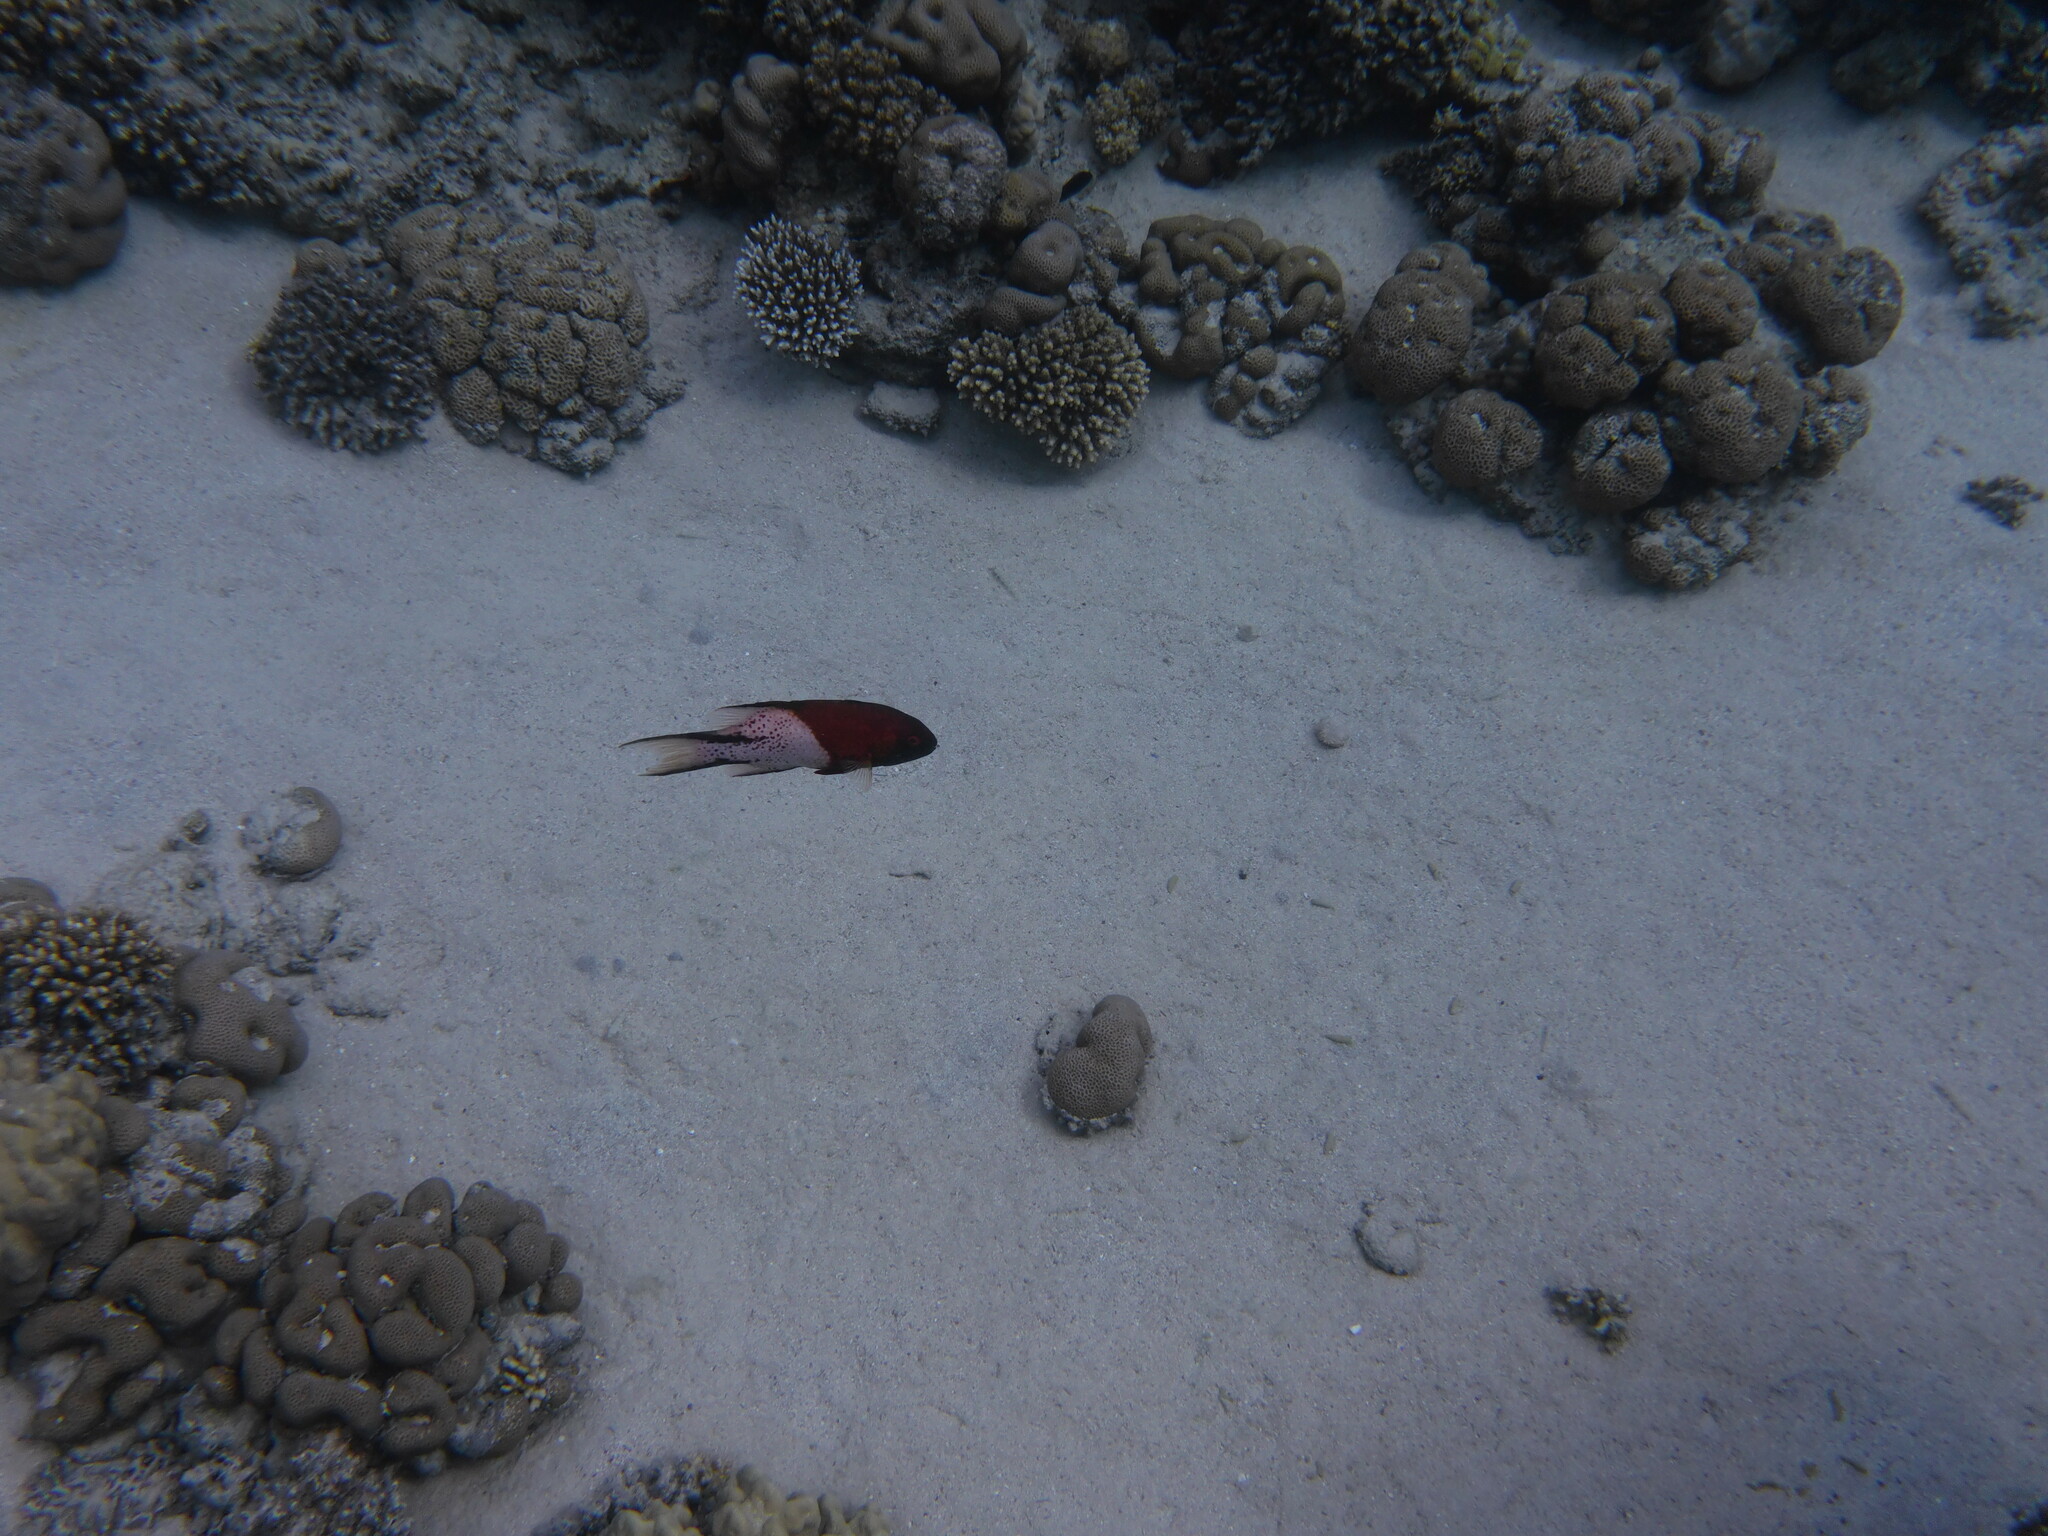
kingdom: Animalia
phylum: Chordata
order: Perciformes
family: Labridae
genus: Bodianus
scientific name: Bodianus anthioides
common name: Lyretail hogfish
